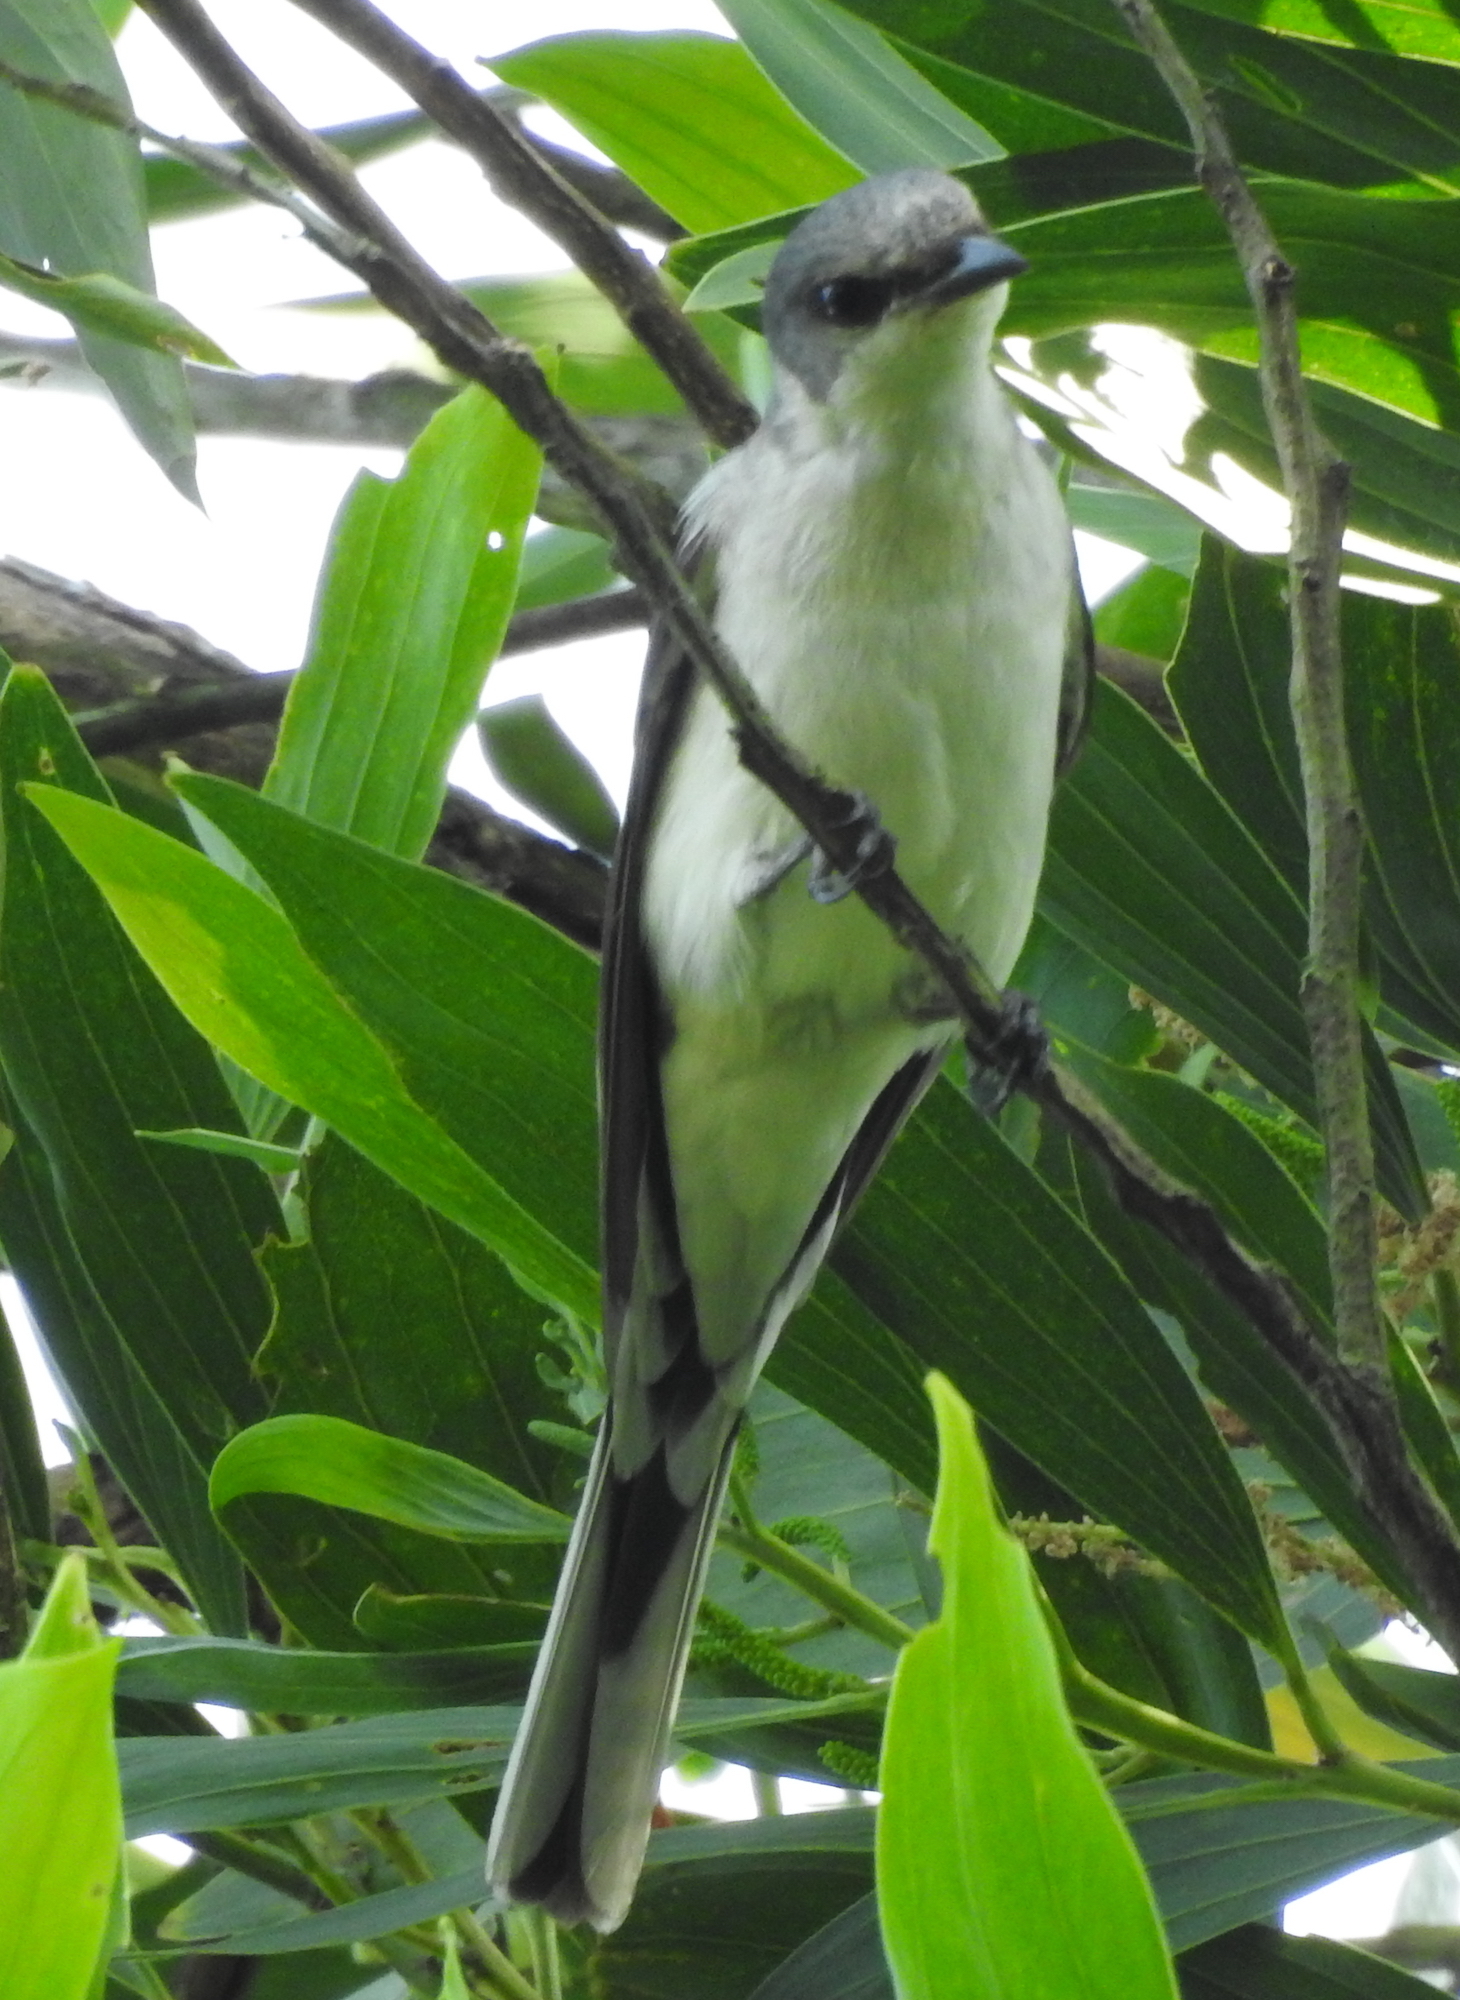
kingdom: Animalia
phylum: Chordata
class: Aves
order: Passeriformes
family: Campephagidae
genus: Pericrocotus
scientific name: Pericrocotus divaricatus
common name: Ashy minivet
